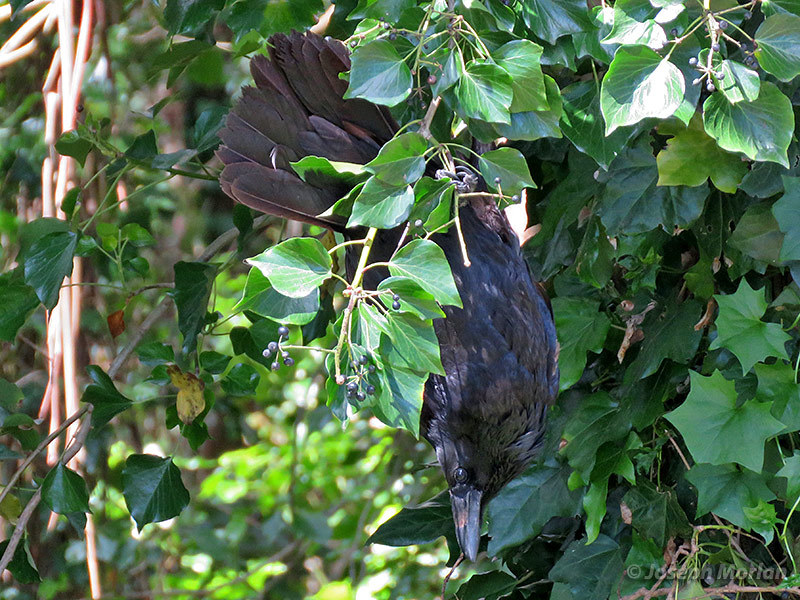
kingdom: Animalia
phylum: Chordata
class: Aves
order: Passeriformes
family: Corvidae
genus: Corvus
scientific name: Corvus corax
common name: Common raven
